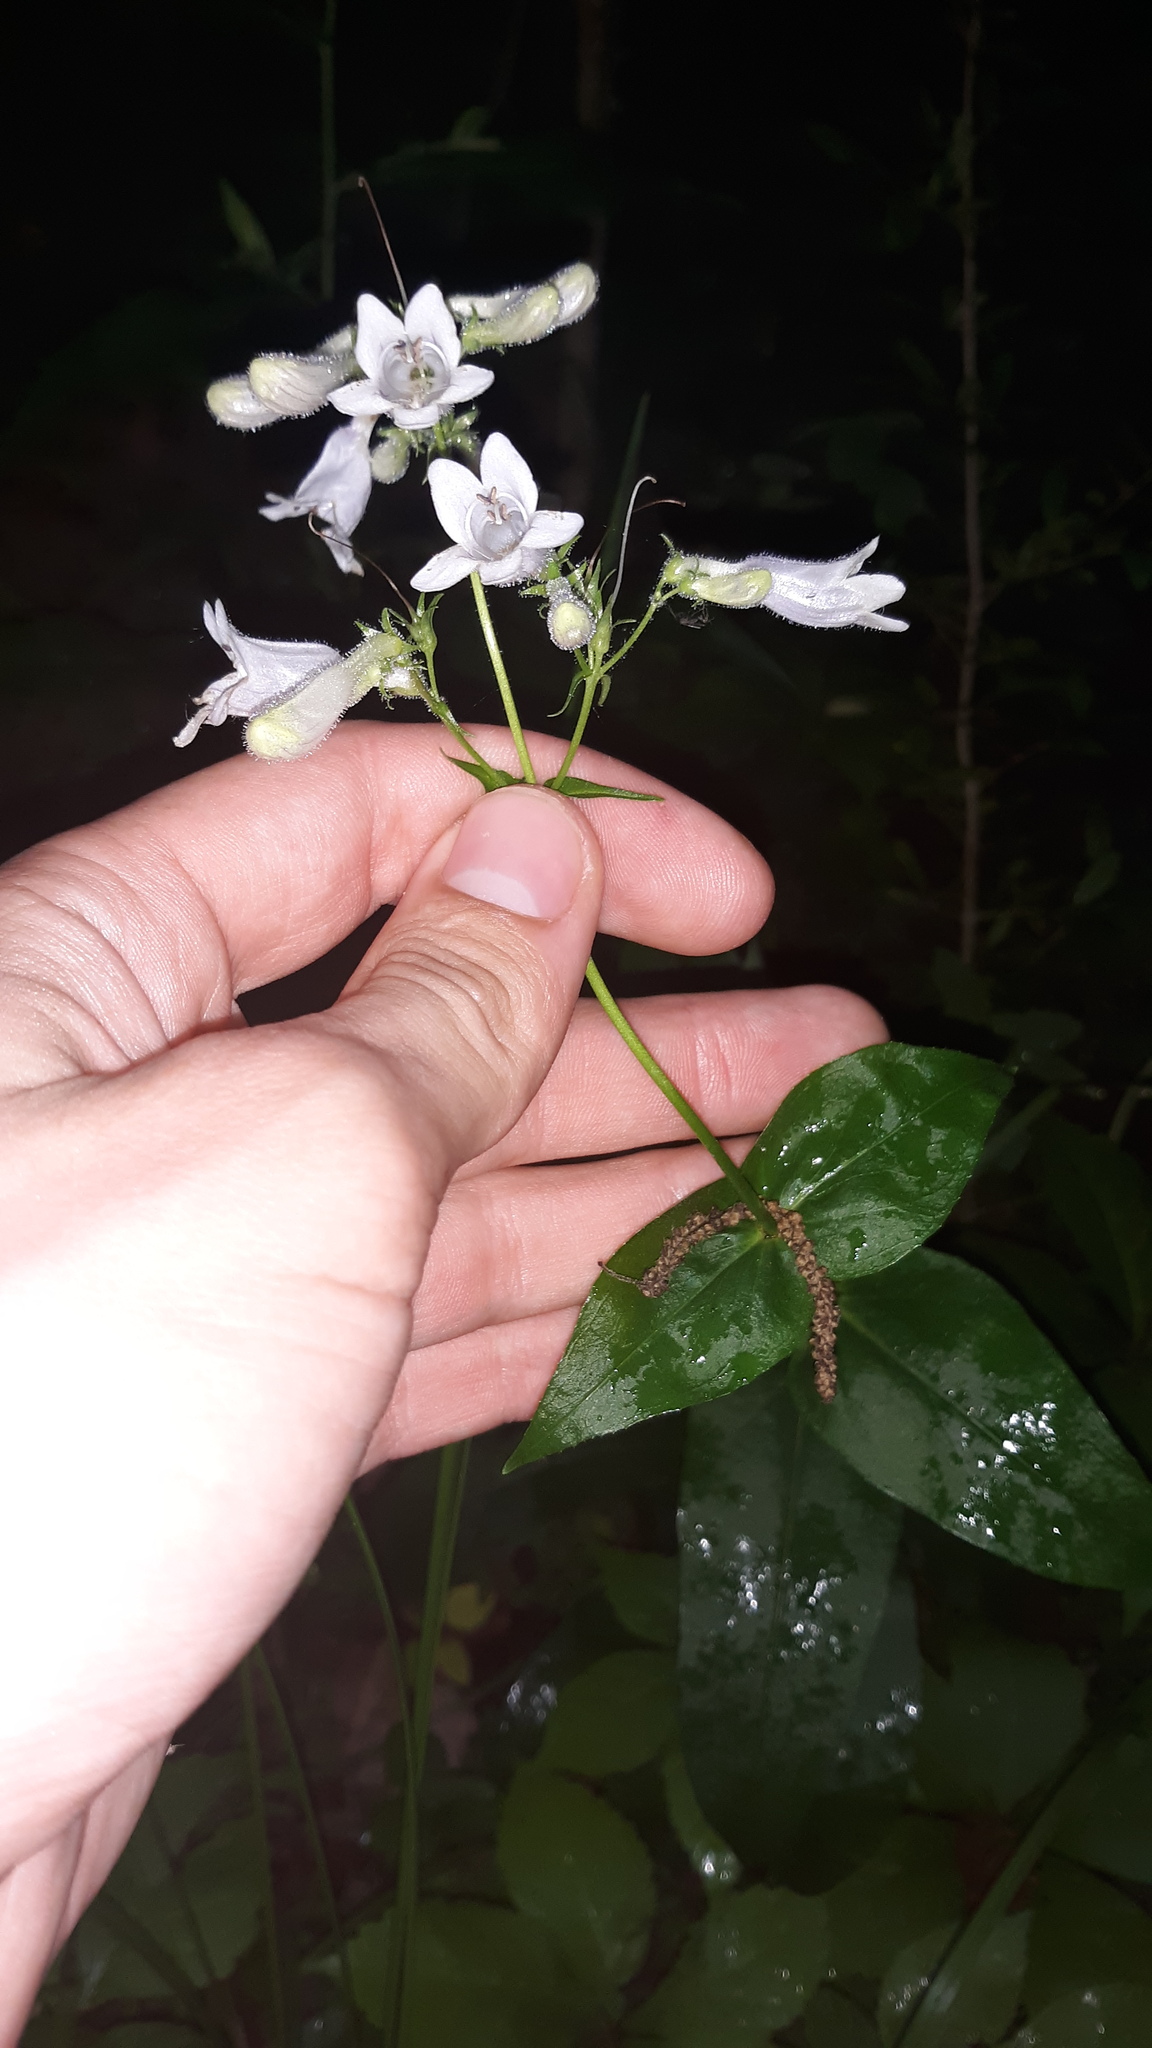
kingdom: Plantae
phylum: Tracheophyta
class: Magnoliopsida
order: Lamiales
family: Plantaginaceae
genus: Penstemon
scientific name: Penstemon digitalis
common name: Foxglove beardtongue
